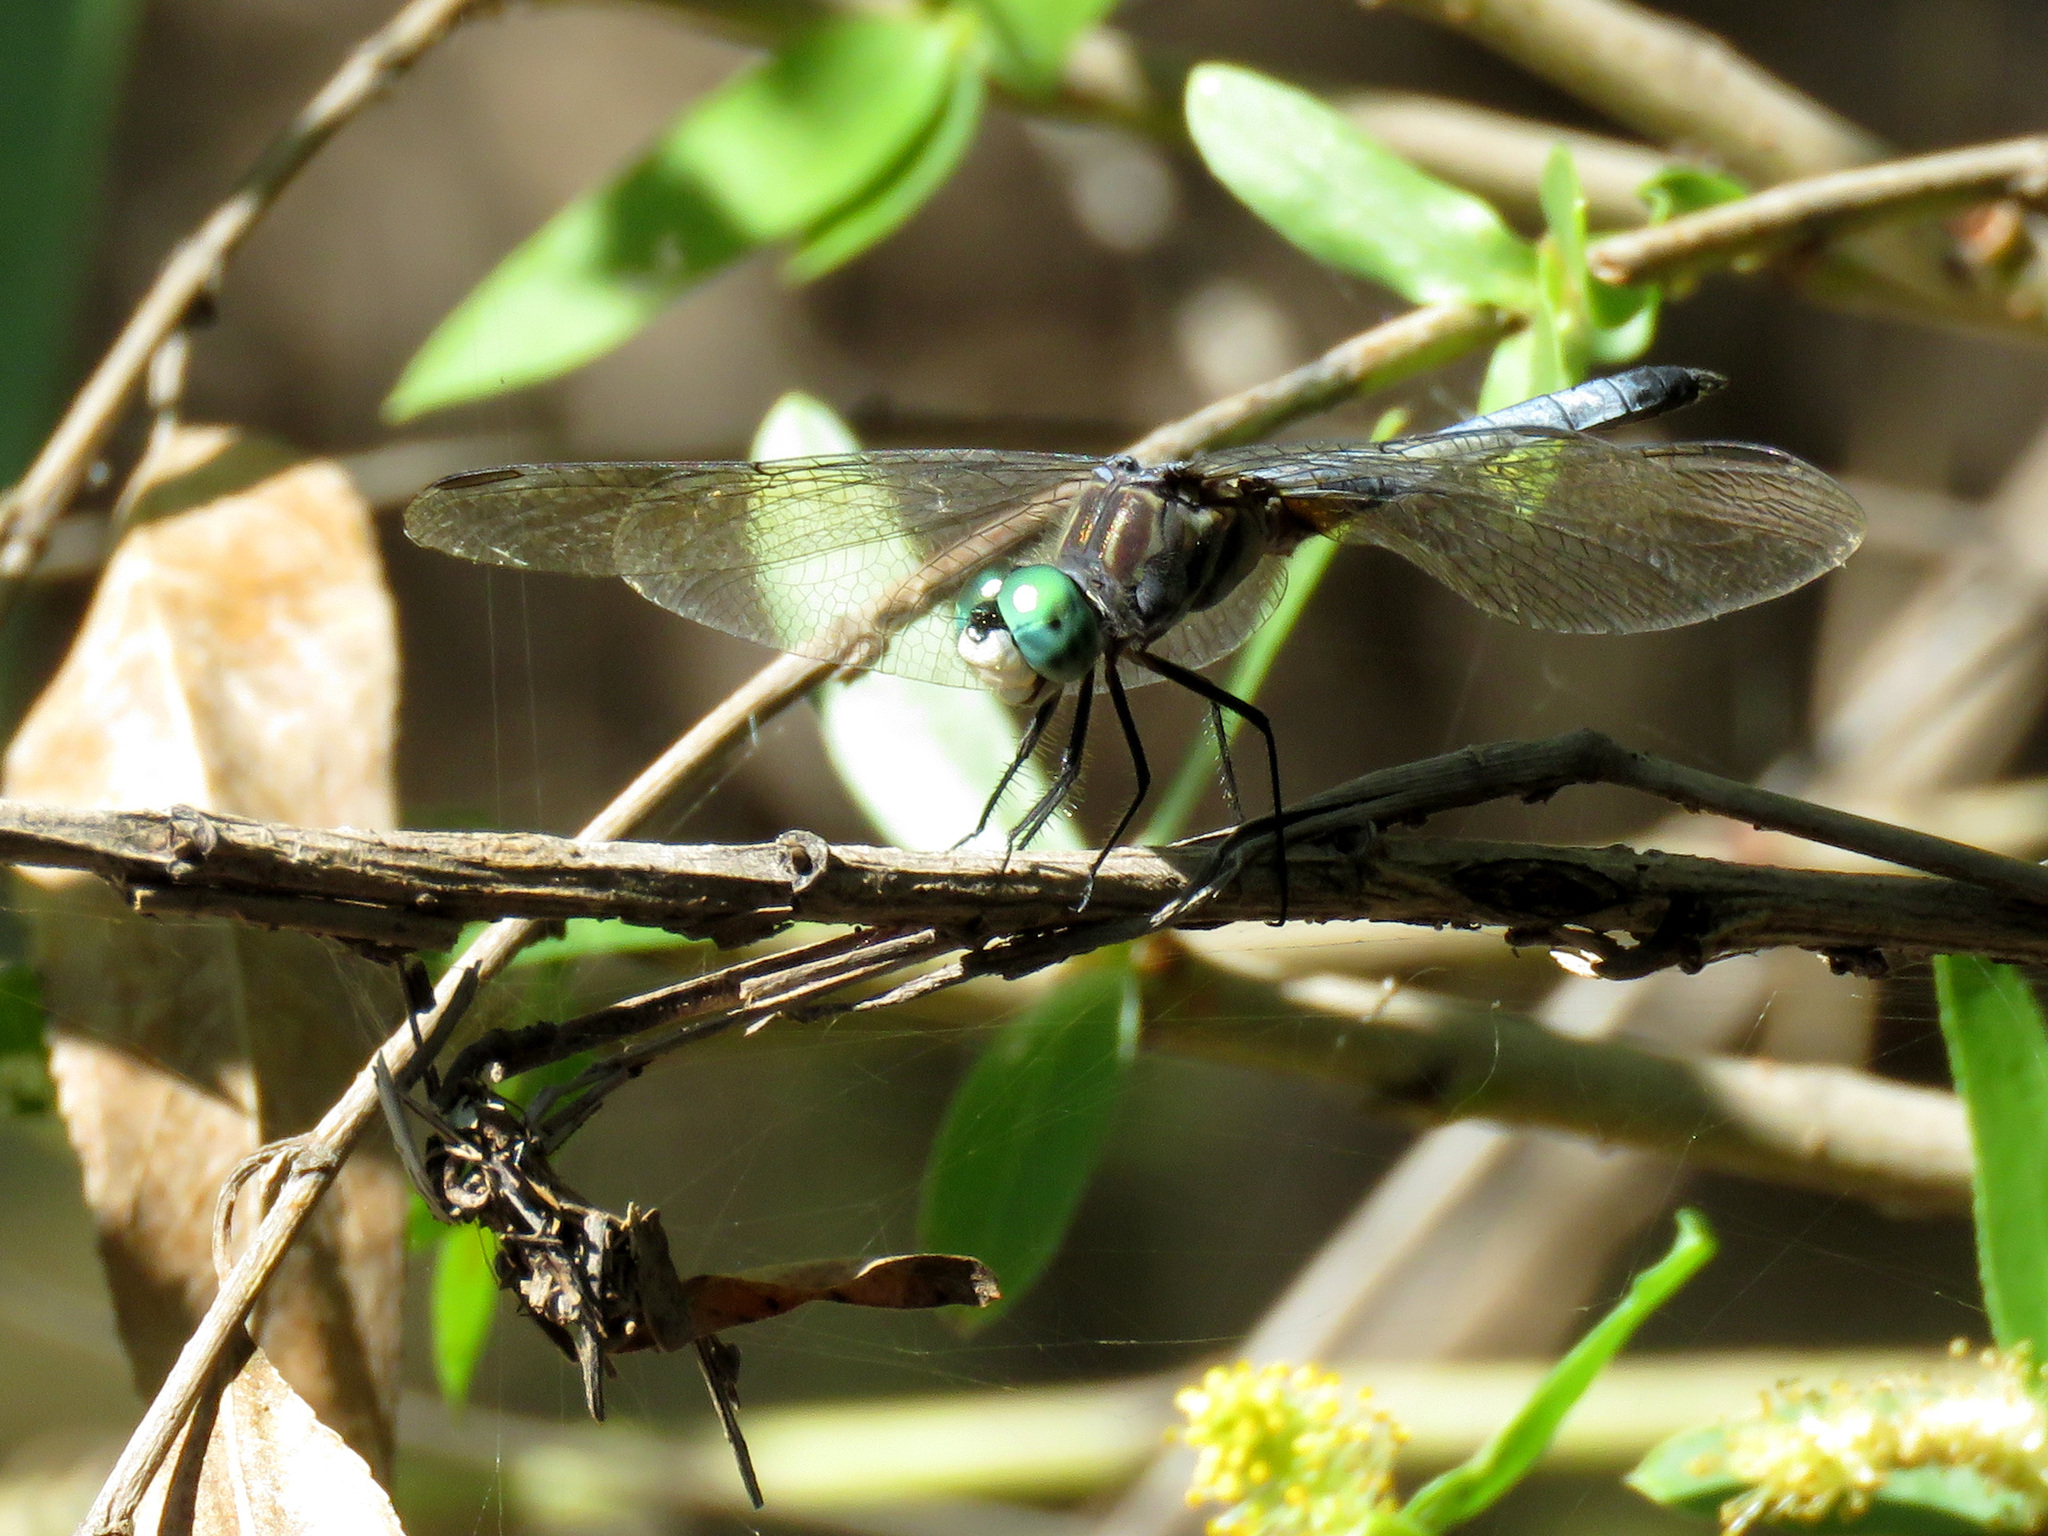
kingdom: Animalia
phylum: Arthropoda
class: Insecta
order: Odonata
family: Libellulidae
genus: Pachydiplax
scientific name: Pachydiplax longipennis
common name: Blue dasher
